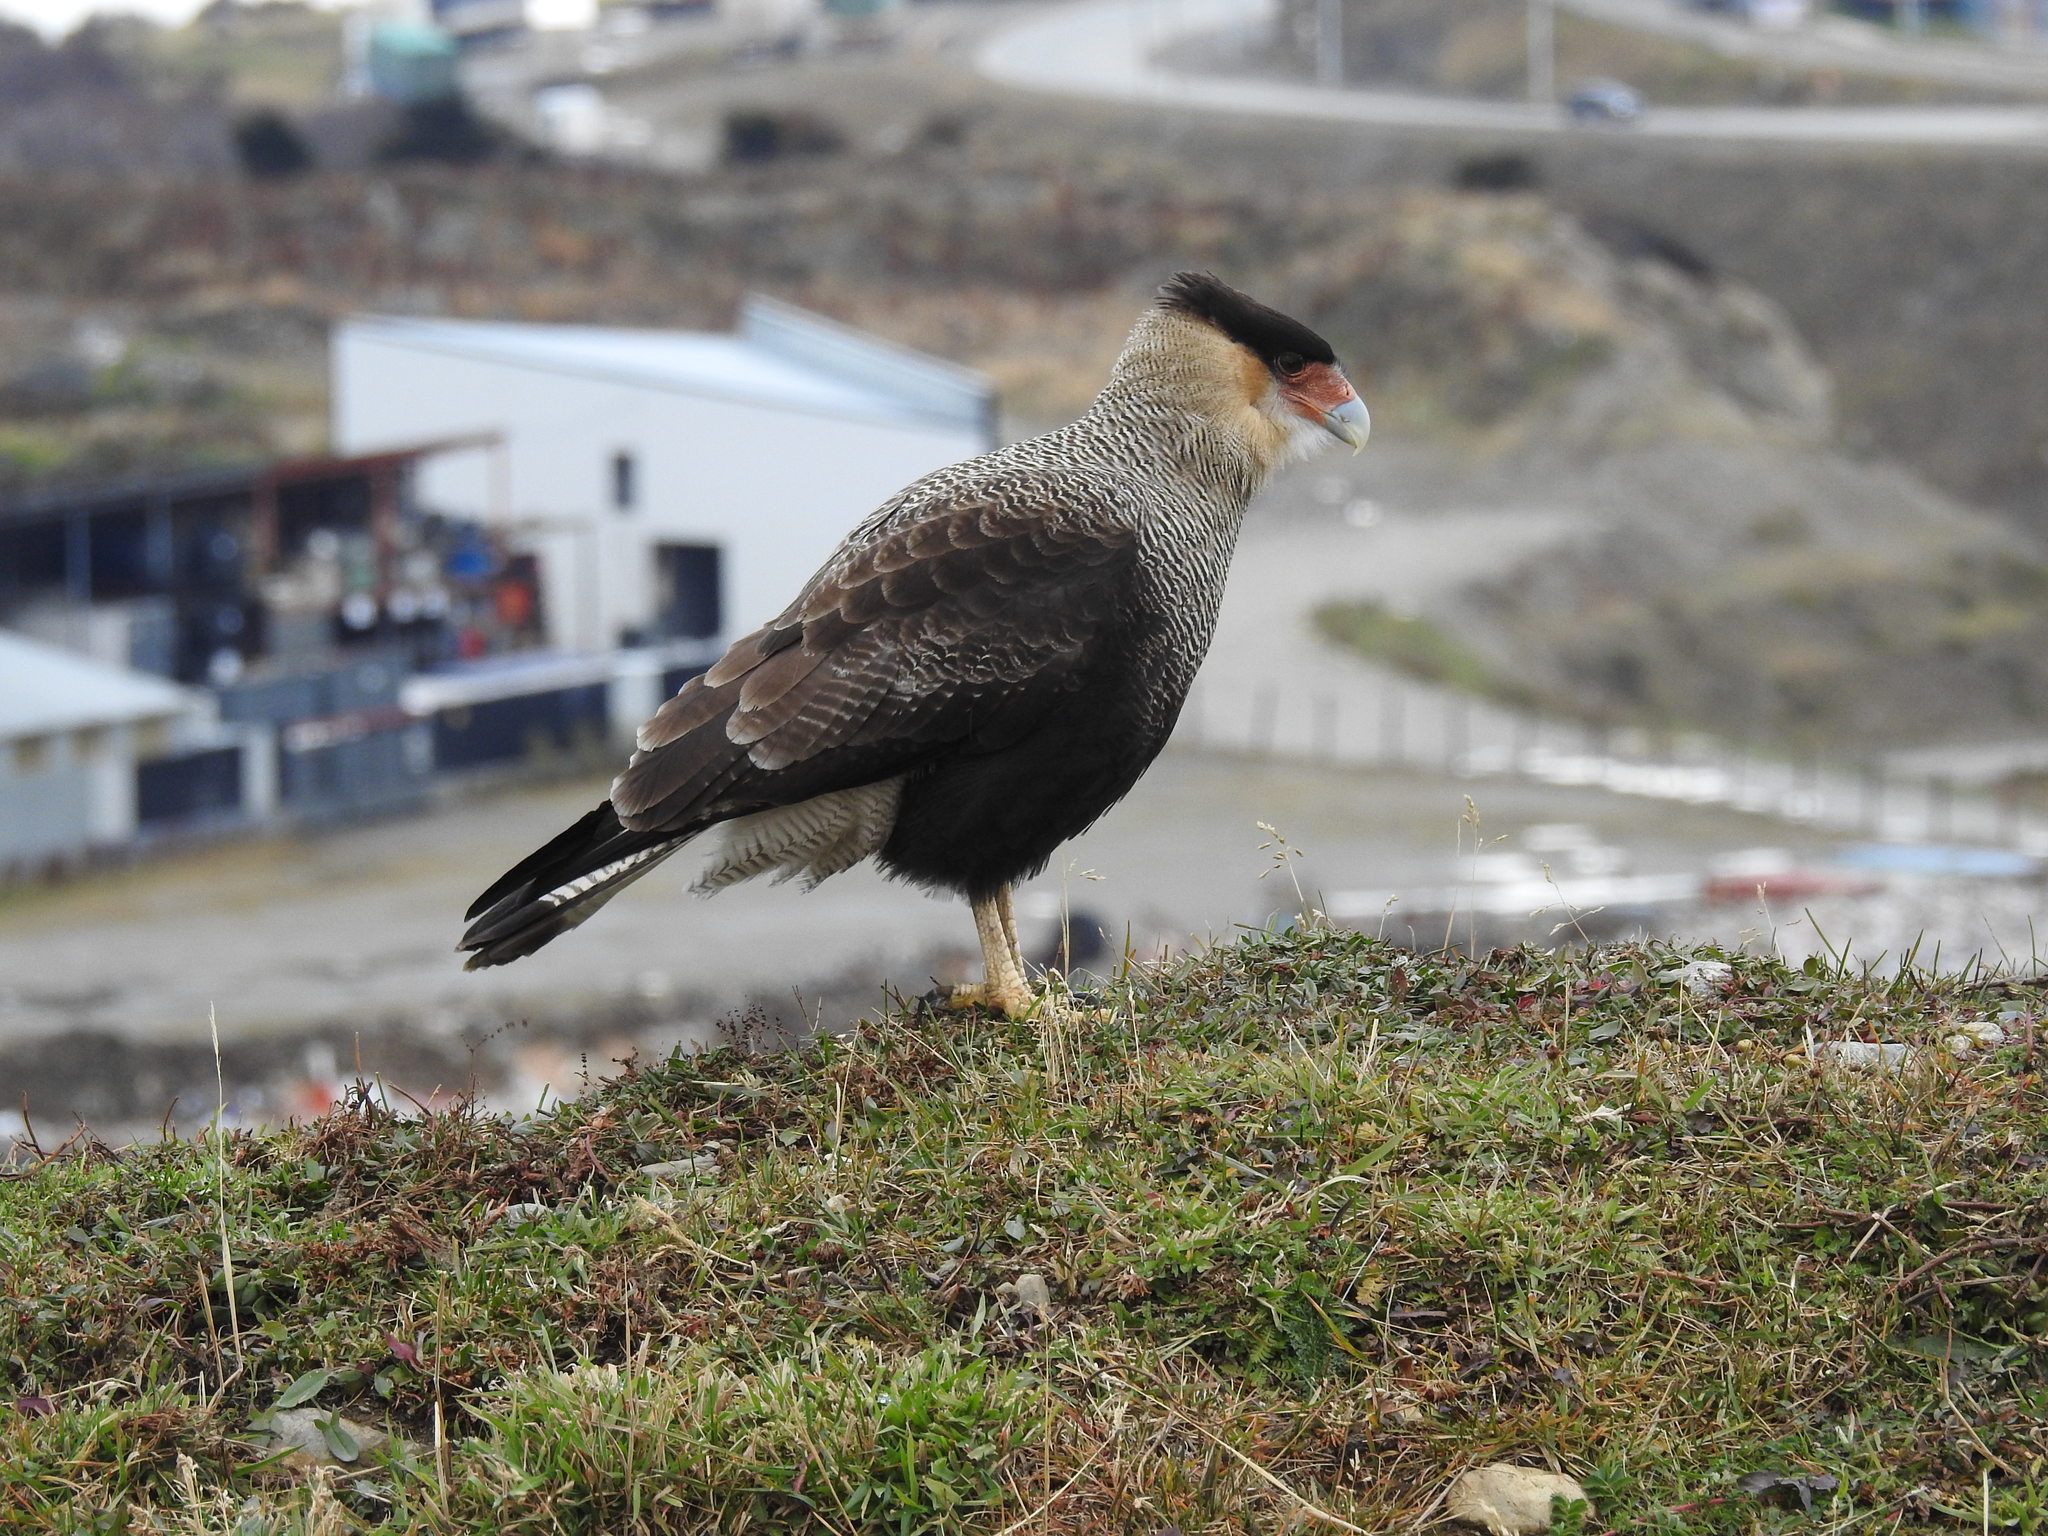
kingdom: Animalia
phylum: Chordata
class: Aves
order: Falconiformes
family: Falconidae
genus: Caracara
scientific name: Caracara plancus
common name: Southern caracara
